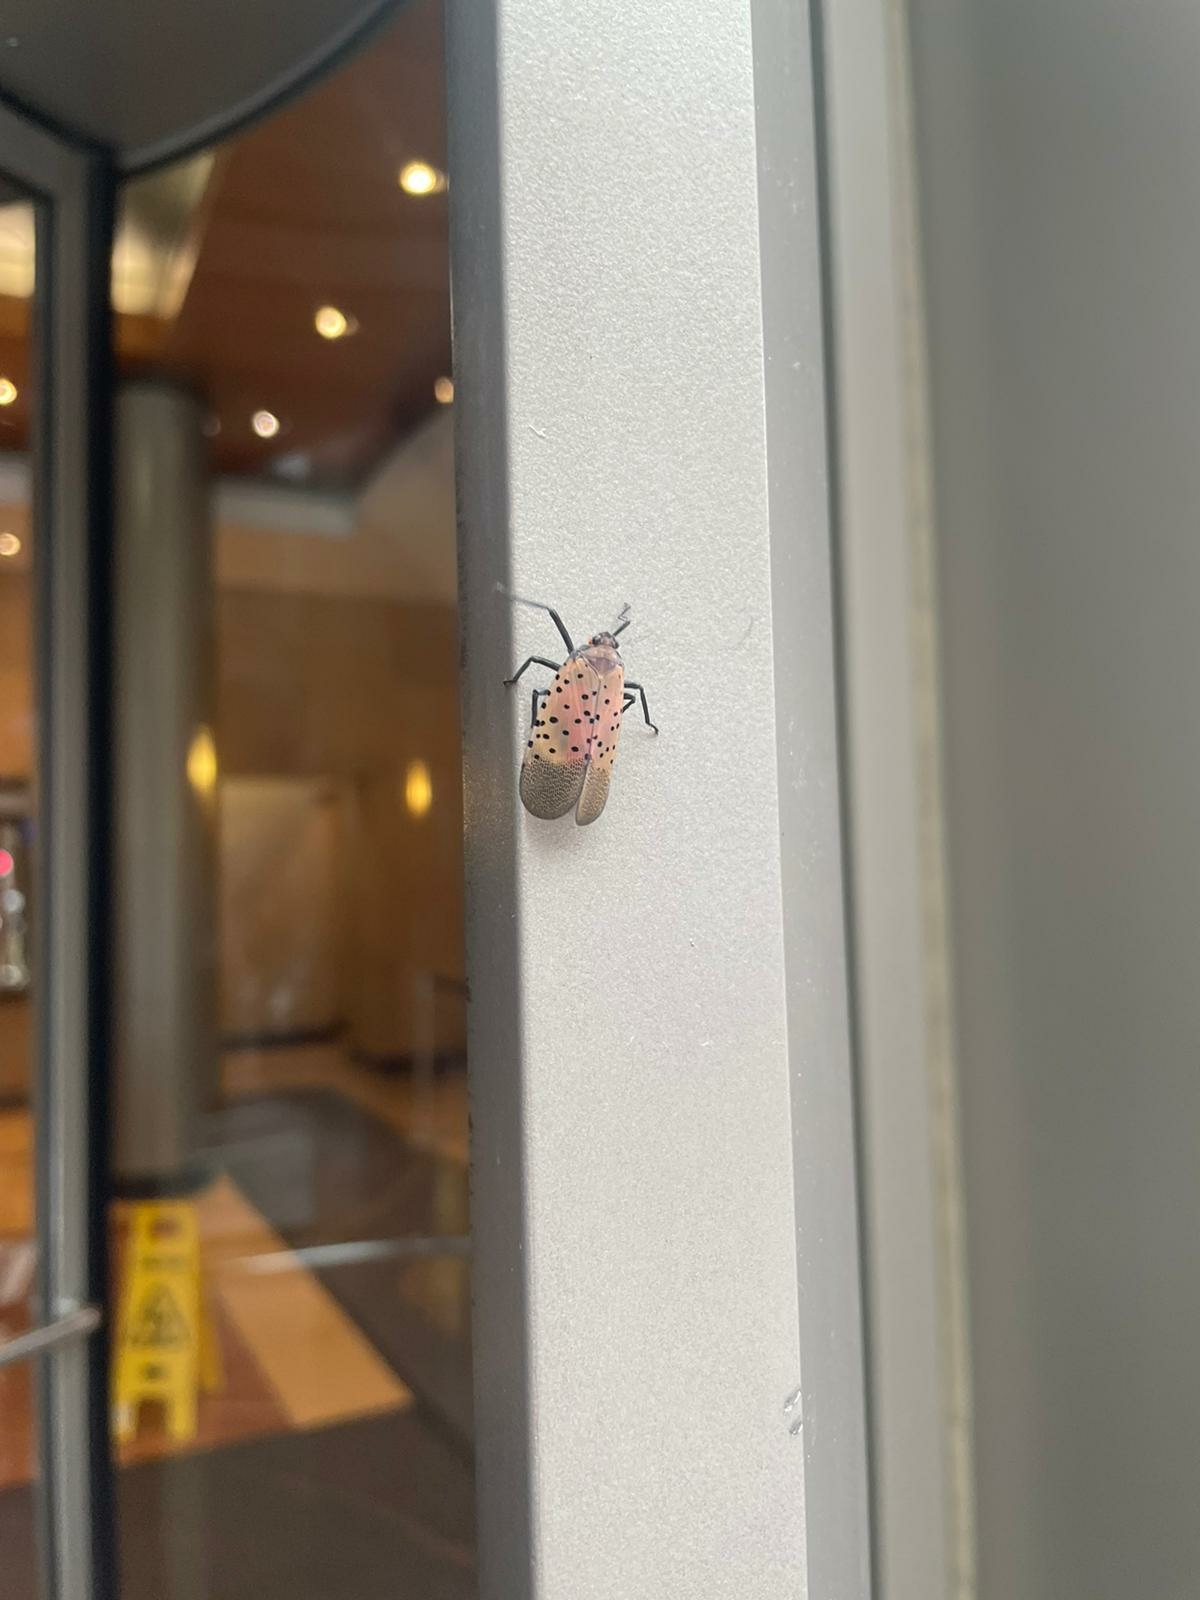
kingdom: Animalia
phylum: Arthropoda
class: Insecta
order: Hemiptera
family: Fulgoridae
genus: Lycorma
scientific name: Lycorma delicatula
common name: Spotted lanternfly
